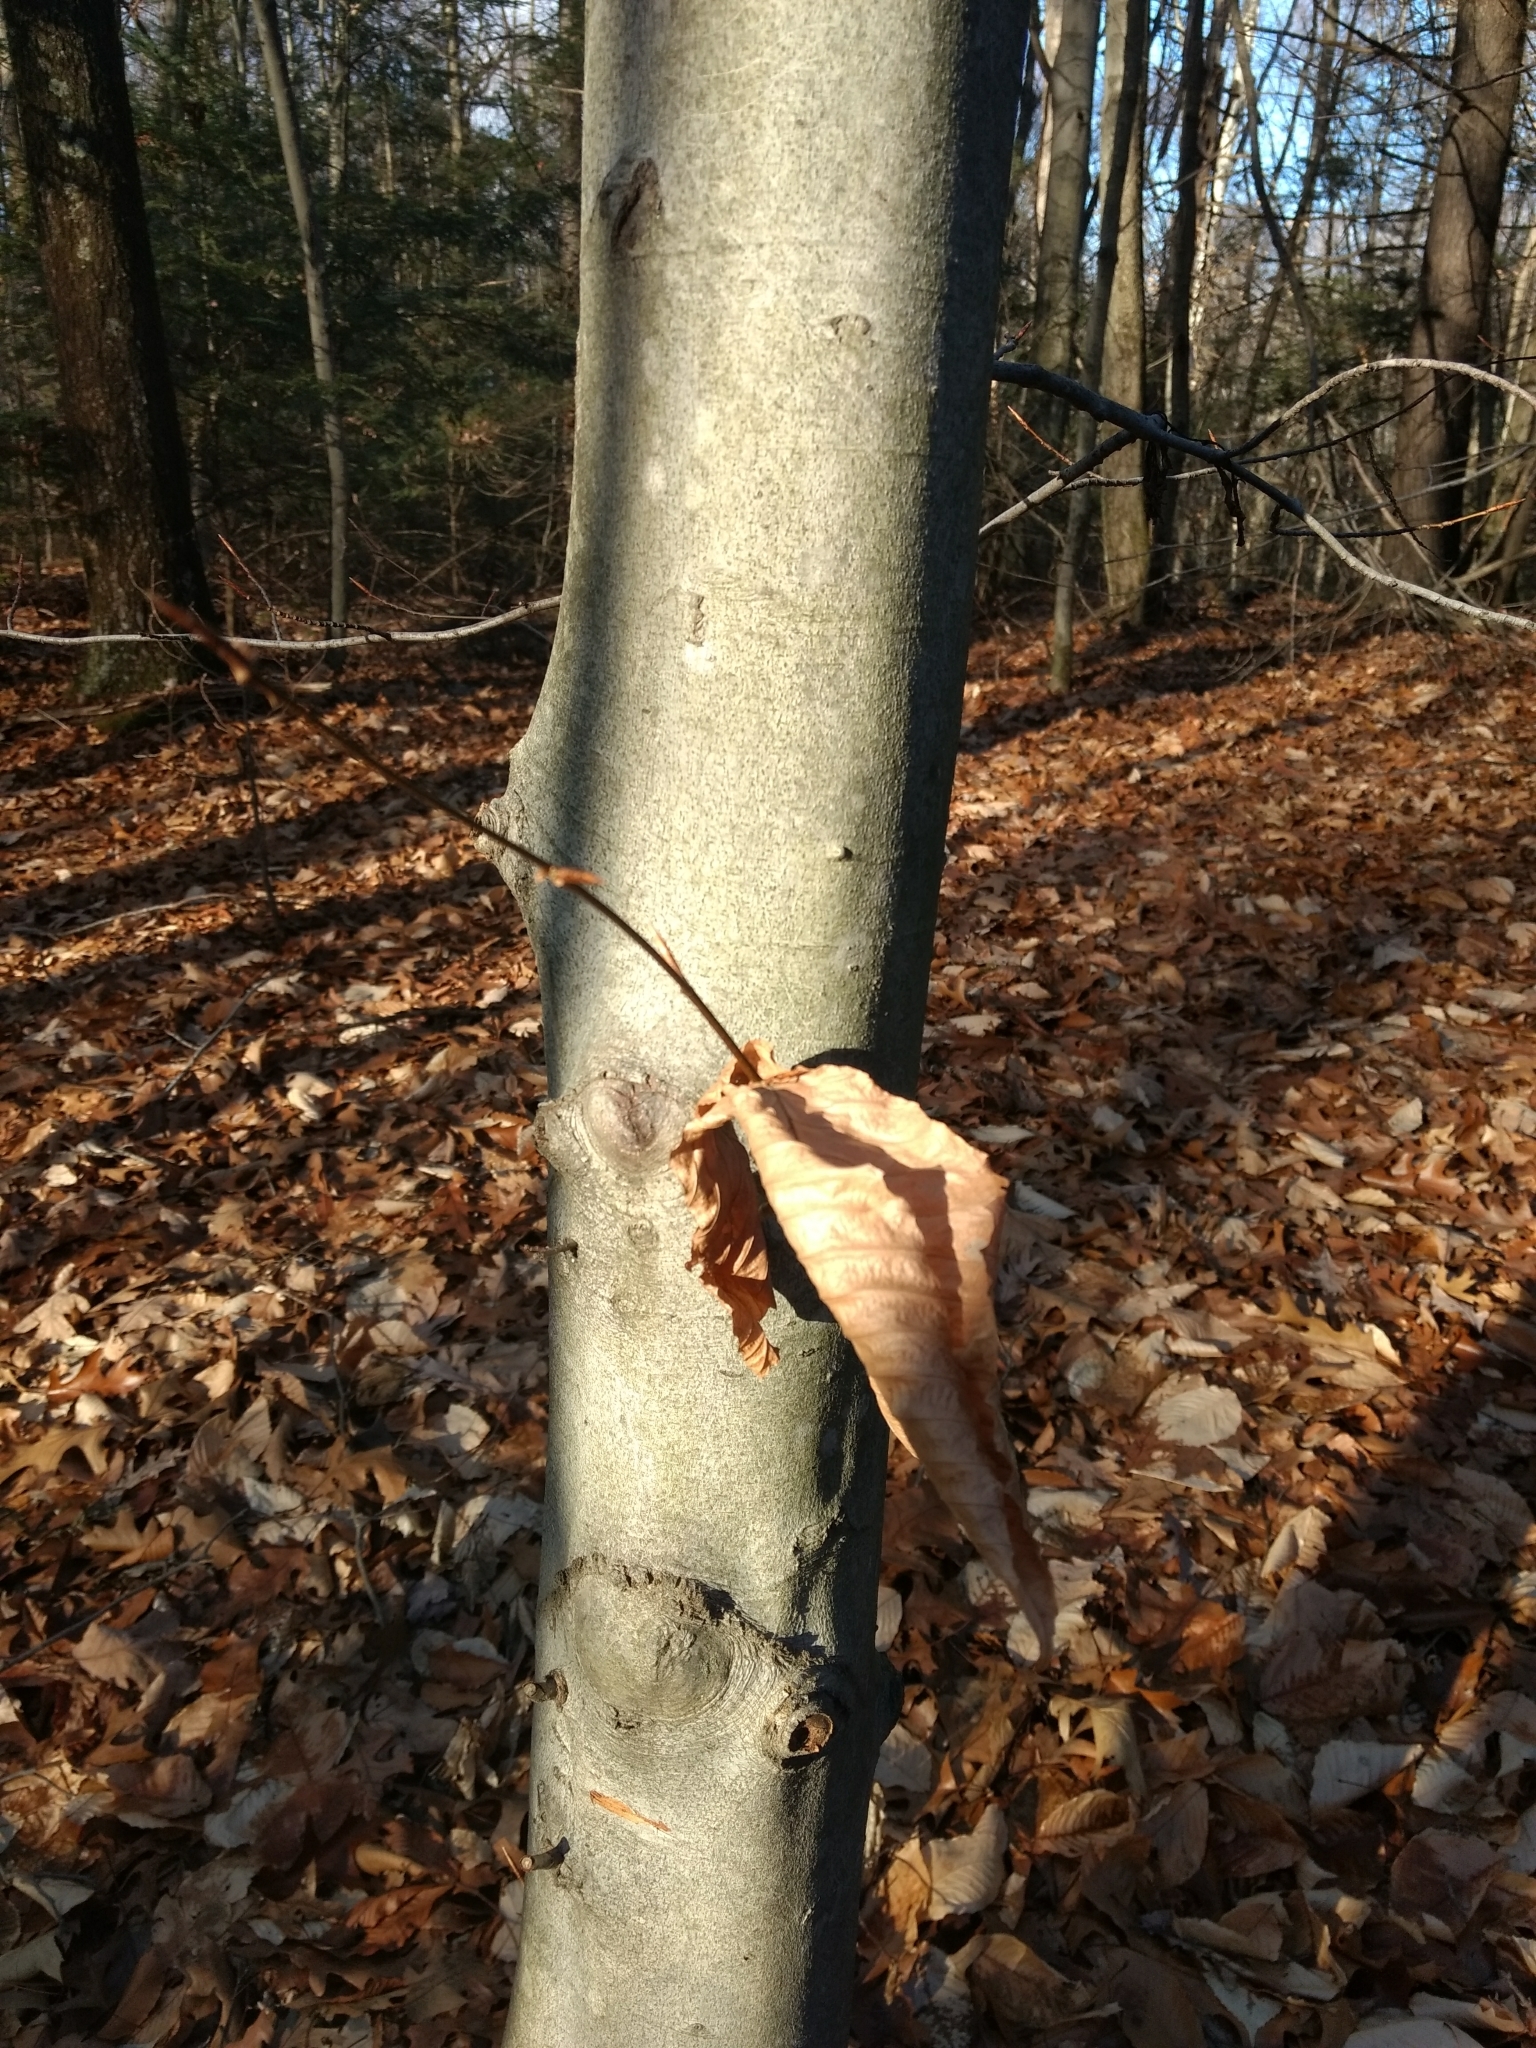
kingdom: Plantae
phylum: Tracheophyta
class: Magnoliopsida
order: Fagales
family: Fagaceae
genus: Fagus
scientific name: Fagus grandifolia
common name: American beech
